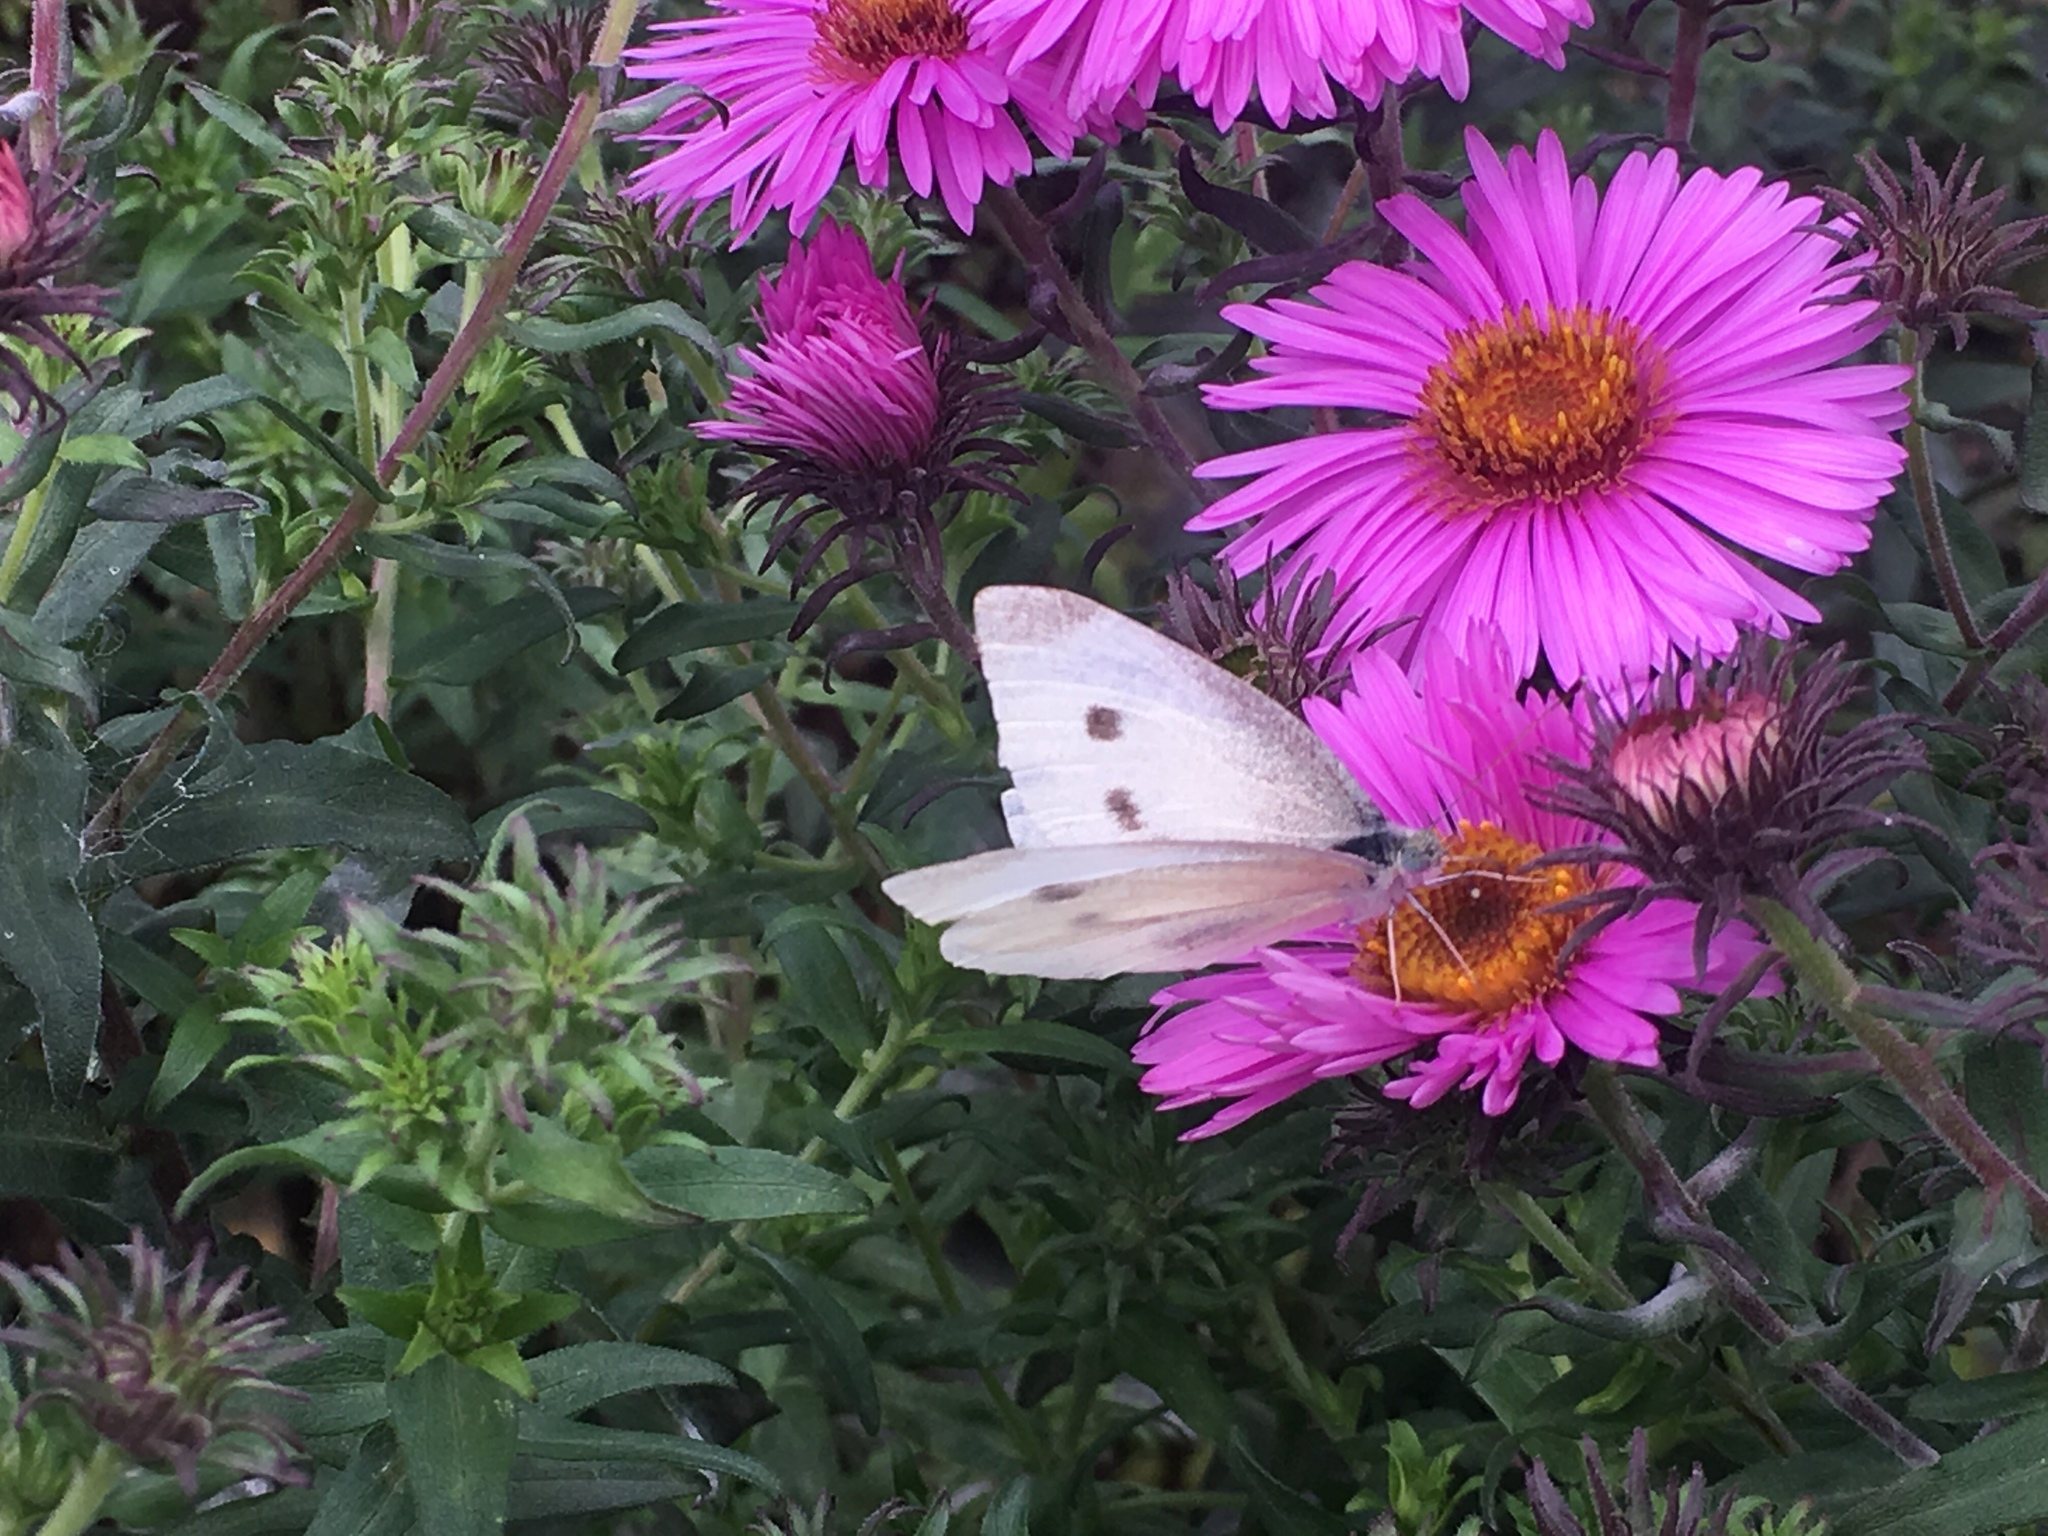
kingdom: Animalia
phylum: Arthropoda
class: Insecta
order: Lepidoptera
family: Pieridae
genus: Pieris
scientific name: Pieris rapae
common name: Small white
